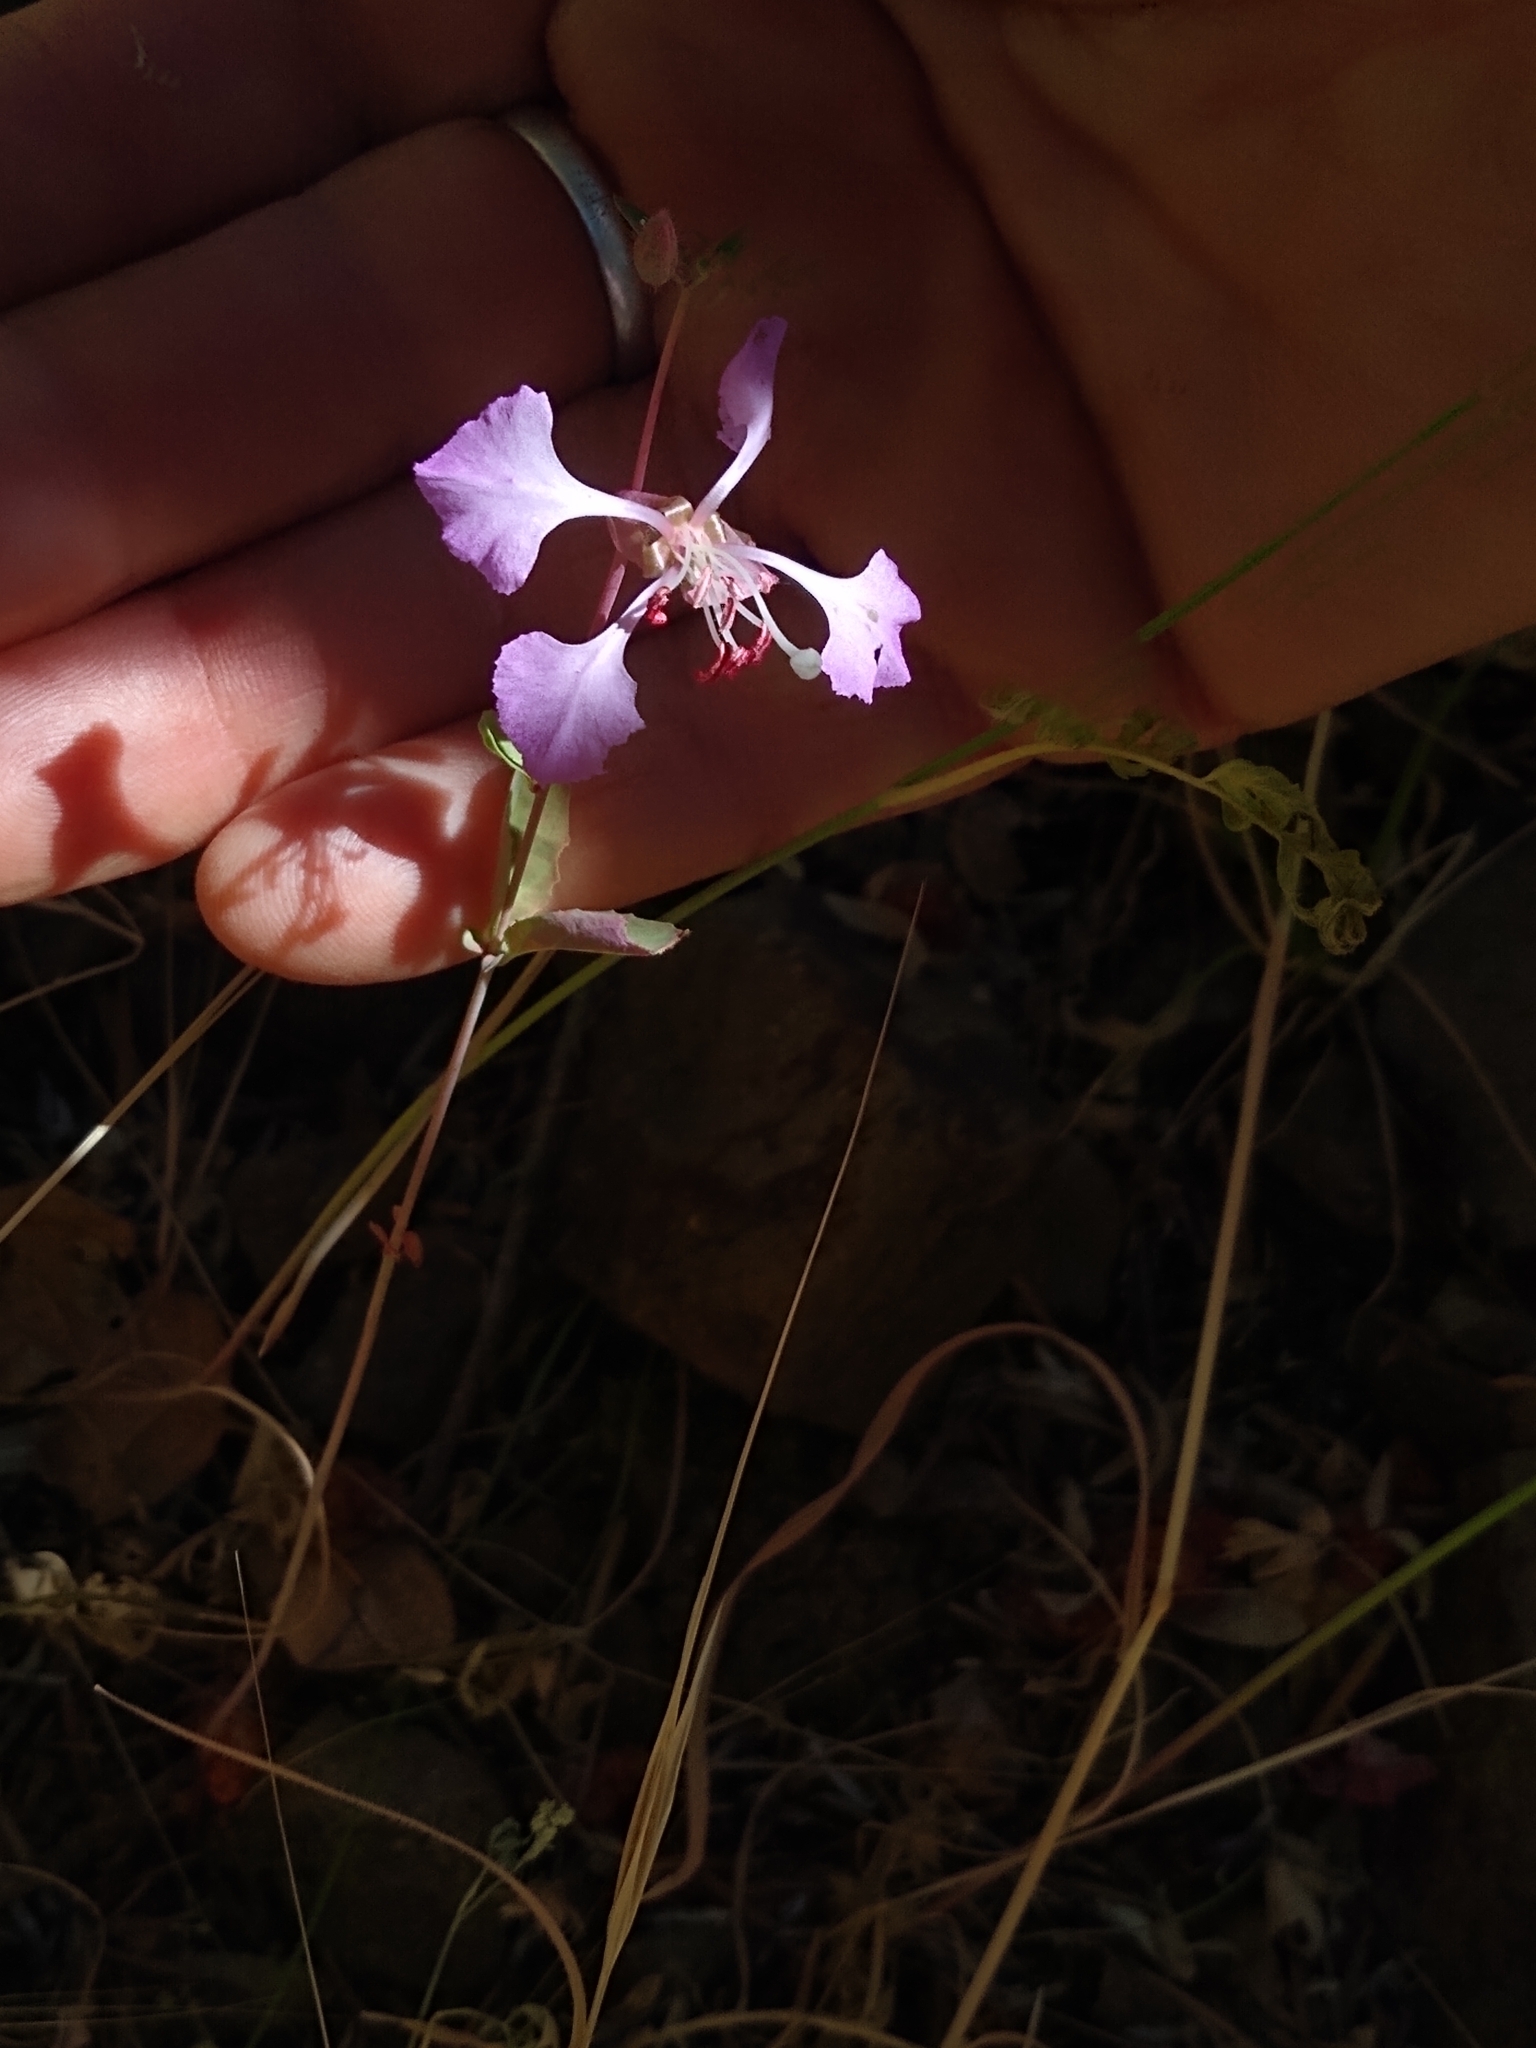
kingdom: Plantae
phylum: Tracheophyta
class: Magnoliopsida
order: Myrtales
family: Onagraceae
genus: Clarkia
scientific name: Clarkia unguiculata
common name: Clarkia
